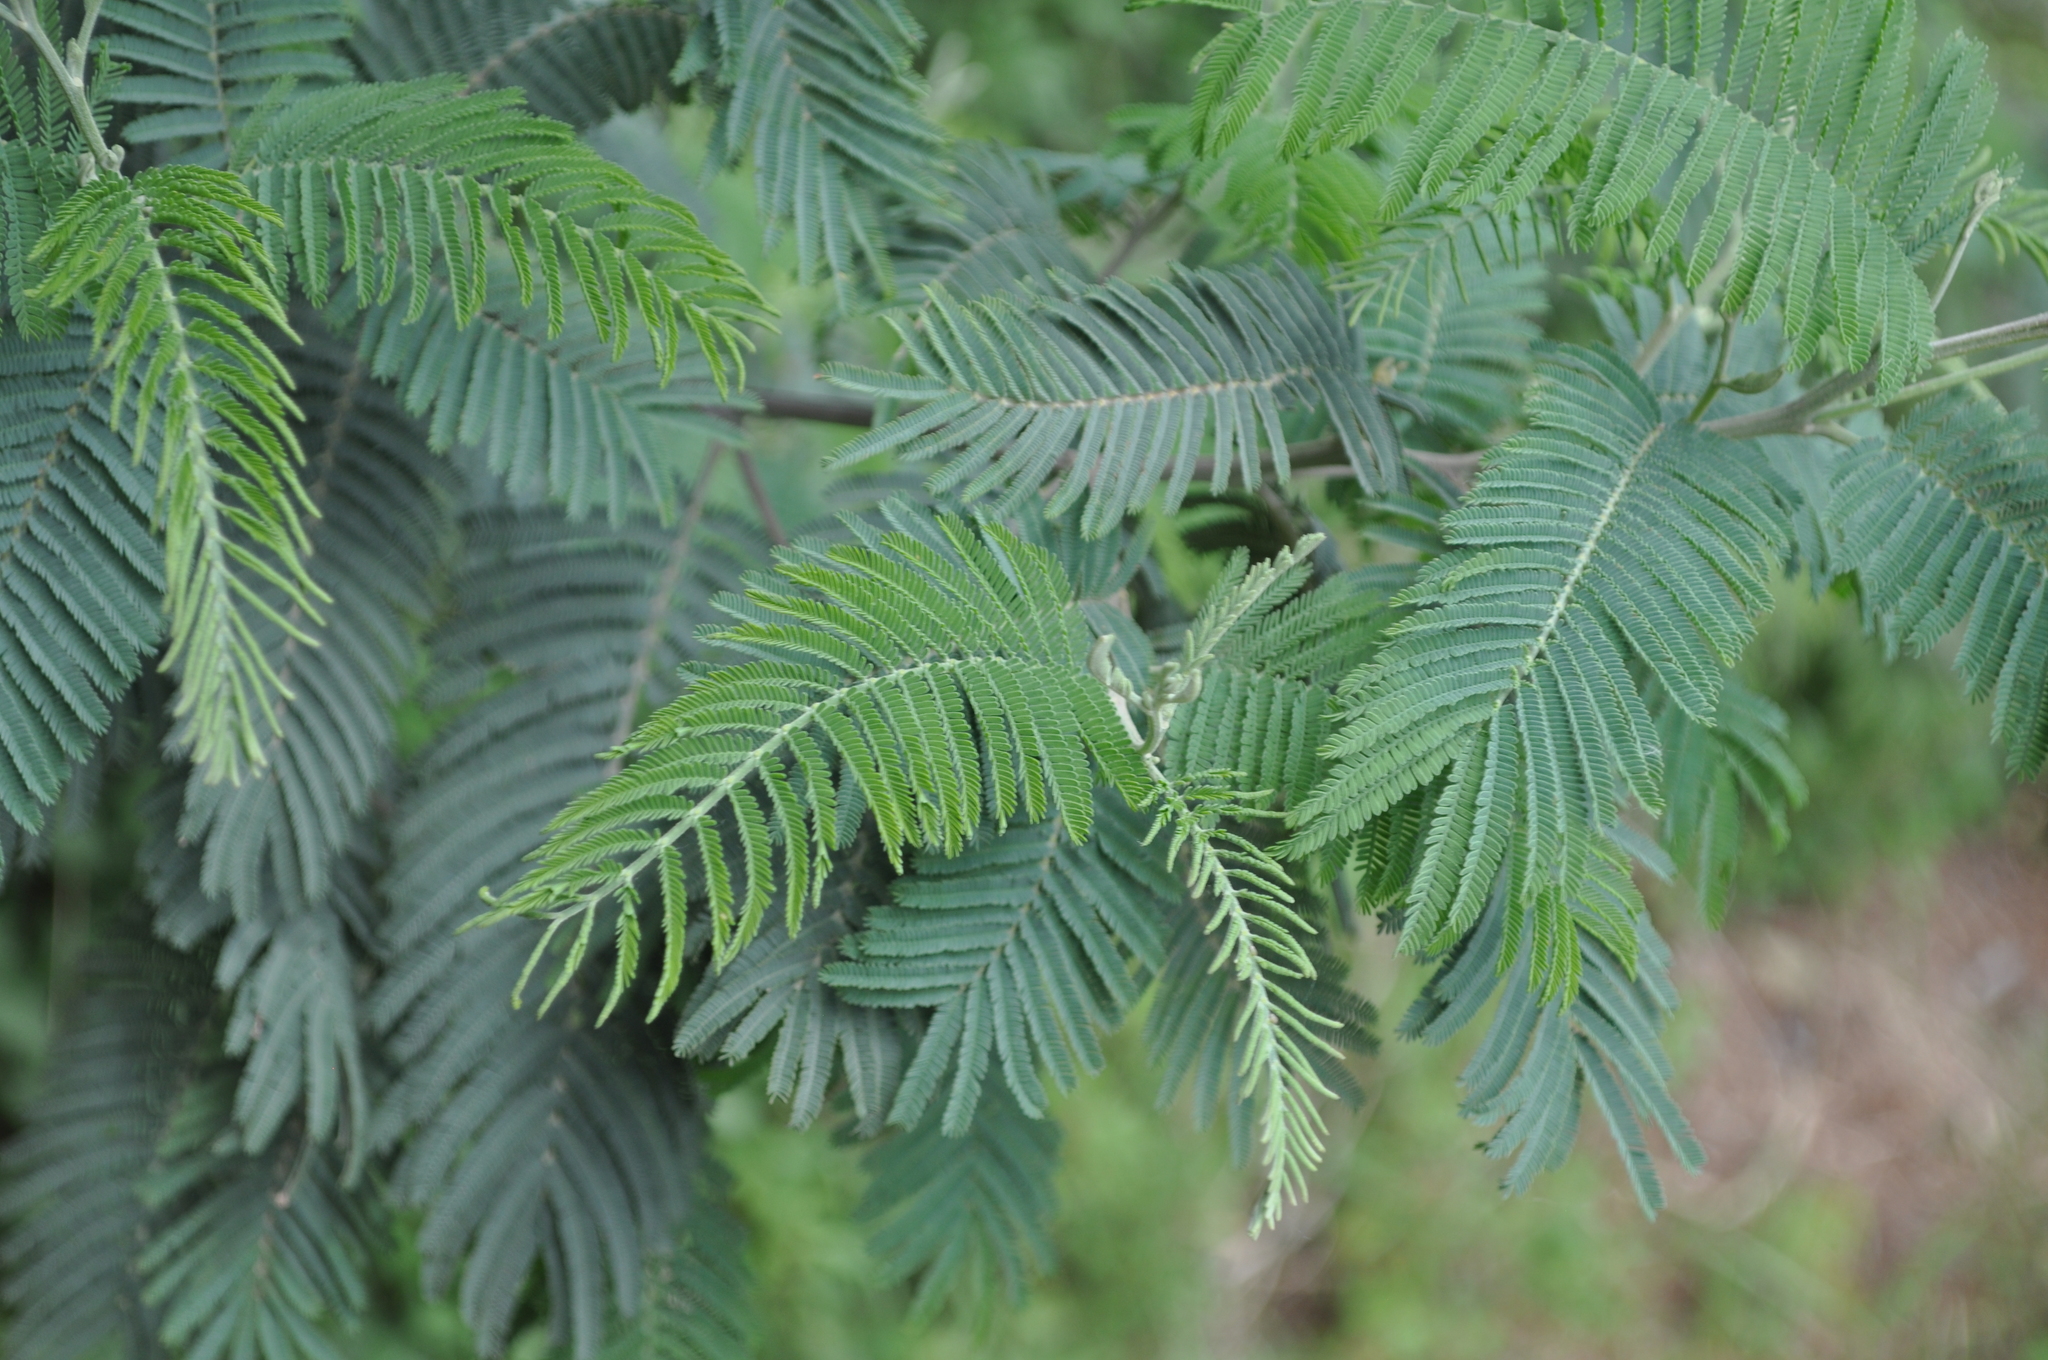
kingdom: Plantae
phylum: Tracheophyta
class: Magnoliopsida
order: Fabales
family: Fabaceae
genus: Acacia
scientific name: Acacia dealbata
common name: Silver wattle
